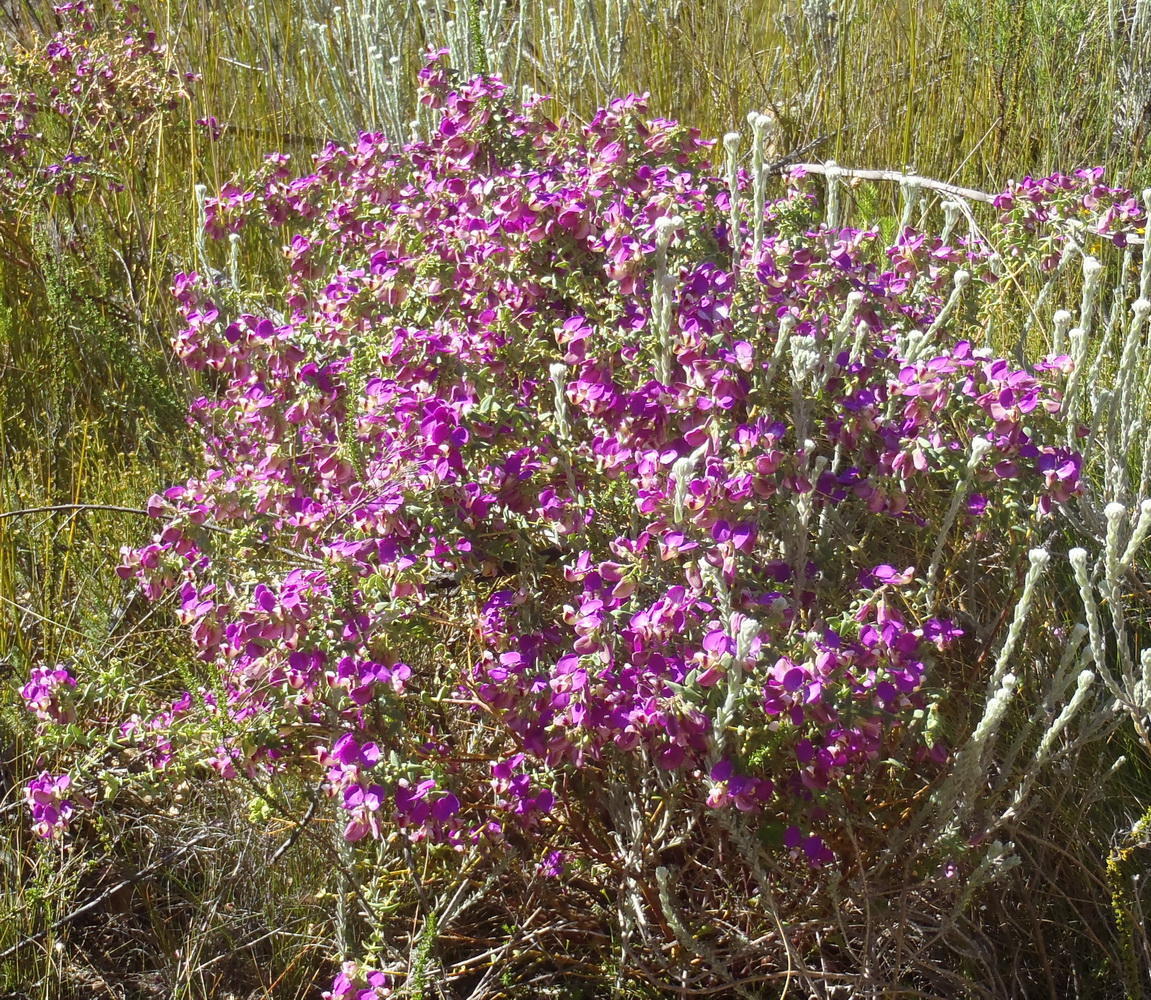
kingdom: Plantae
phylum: Tracheophyta
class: Magnoliopsida
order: Fabales
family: Polygalaceae
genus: Polygala
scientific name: Polygala fruticosa
